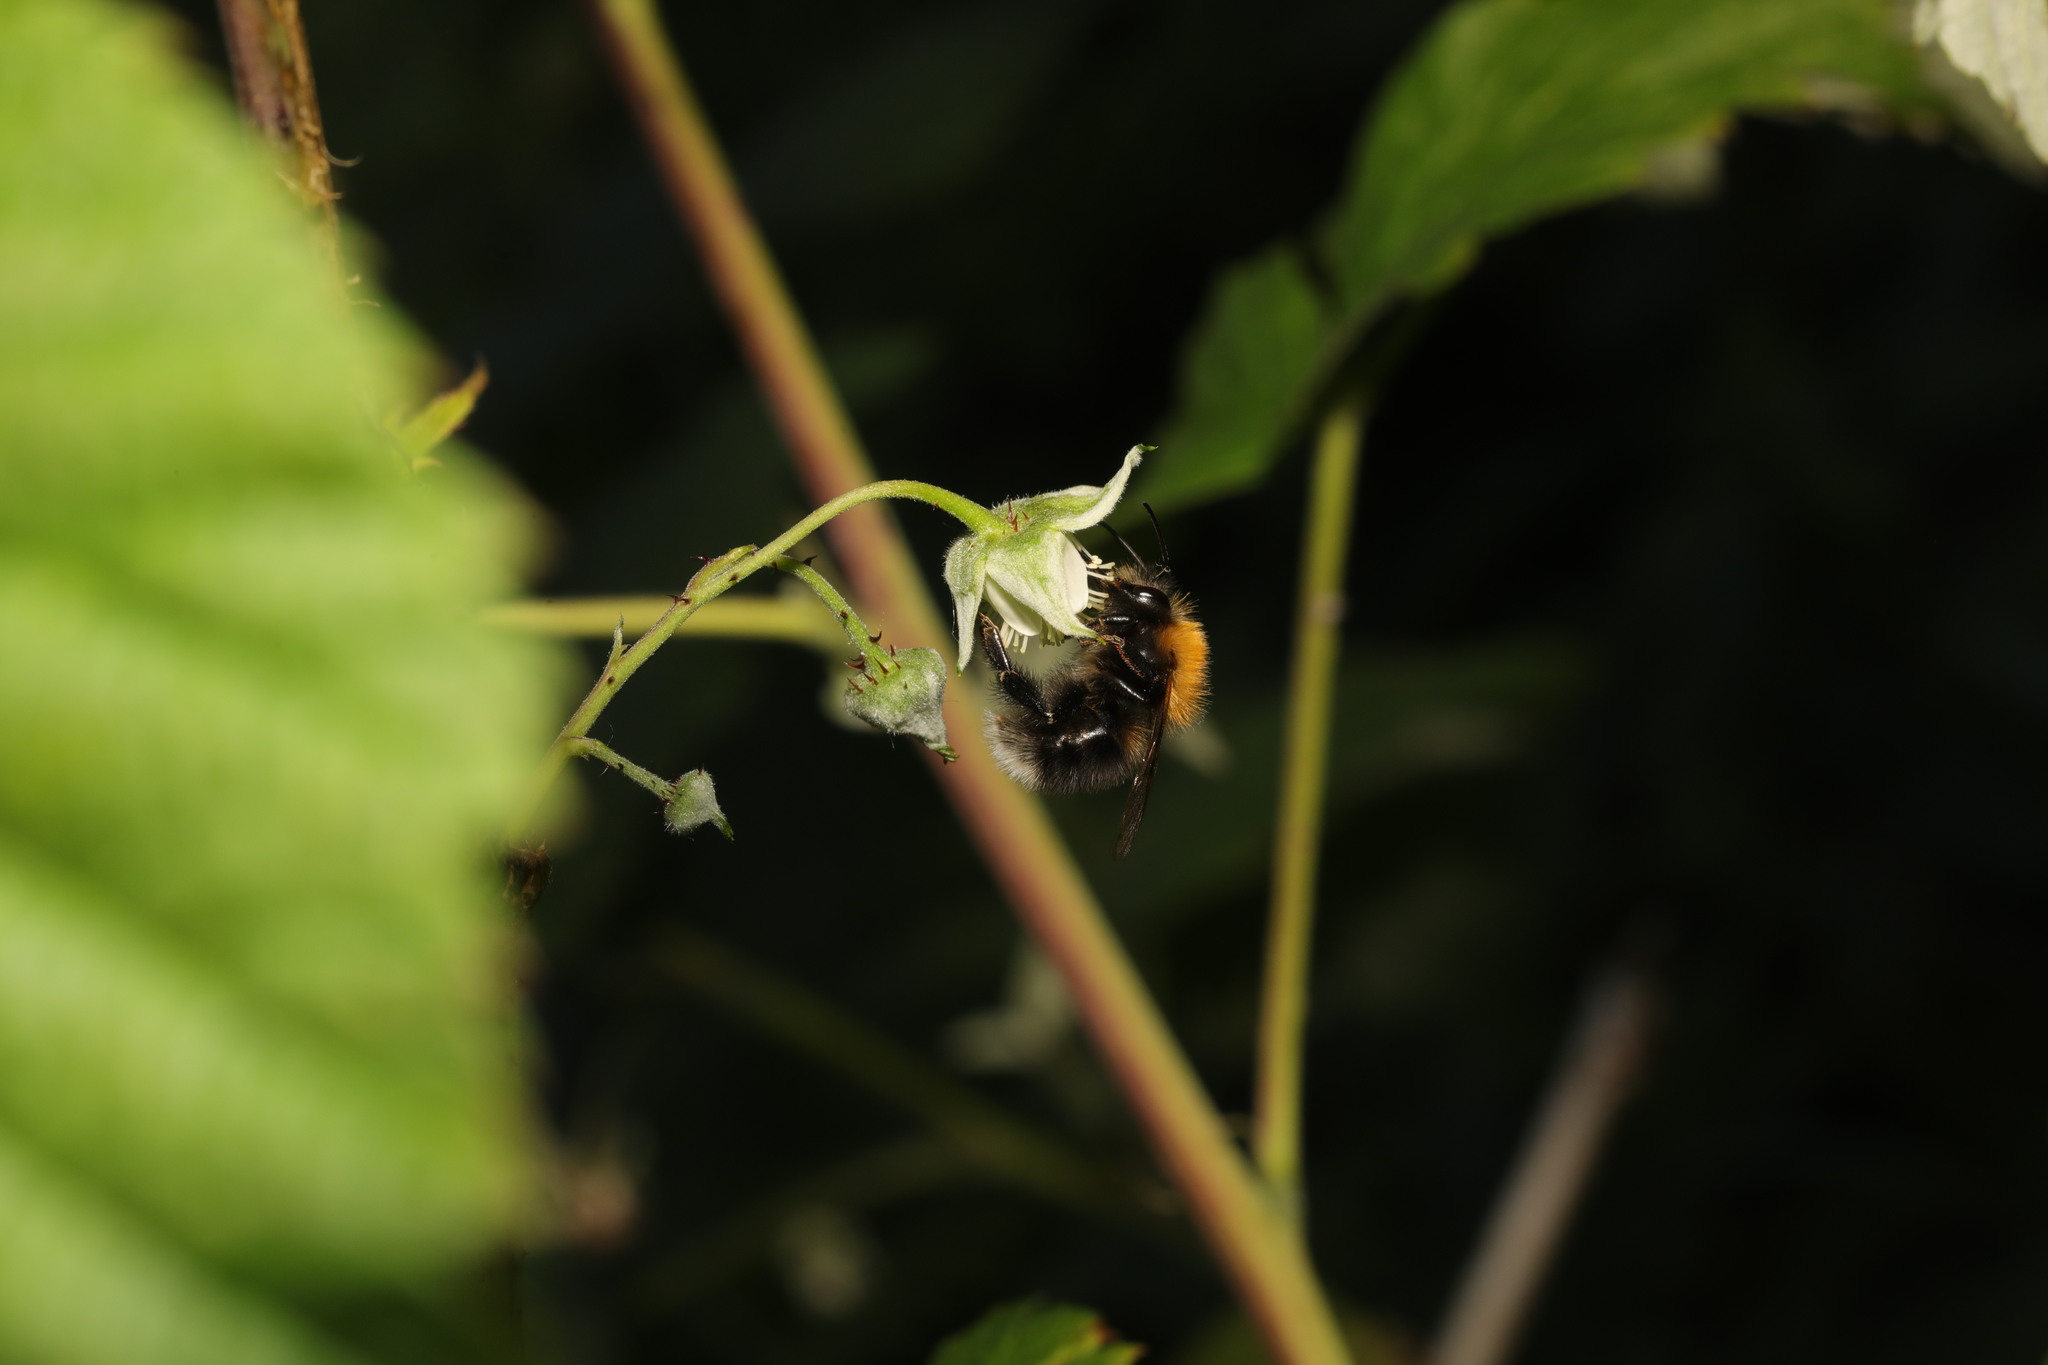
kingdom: Animalia
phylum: Arthropoda
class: Insecta
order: Hymenoptera
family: Apidae
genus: Bombus
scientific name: Bombus hypnorum
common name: New garden bumblebee
